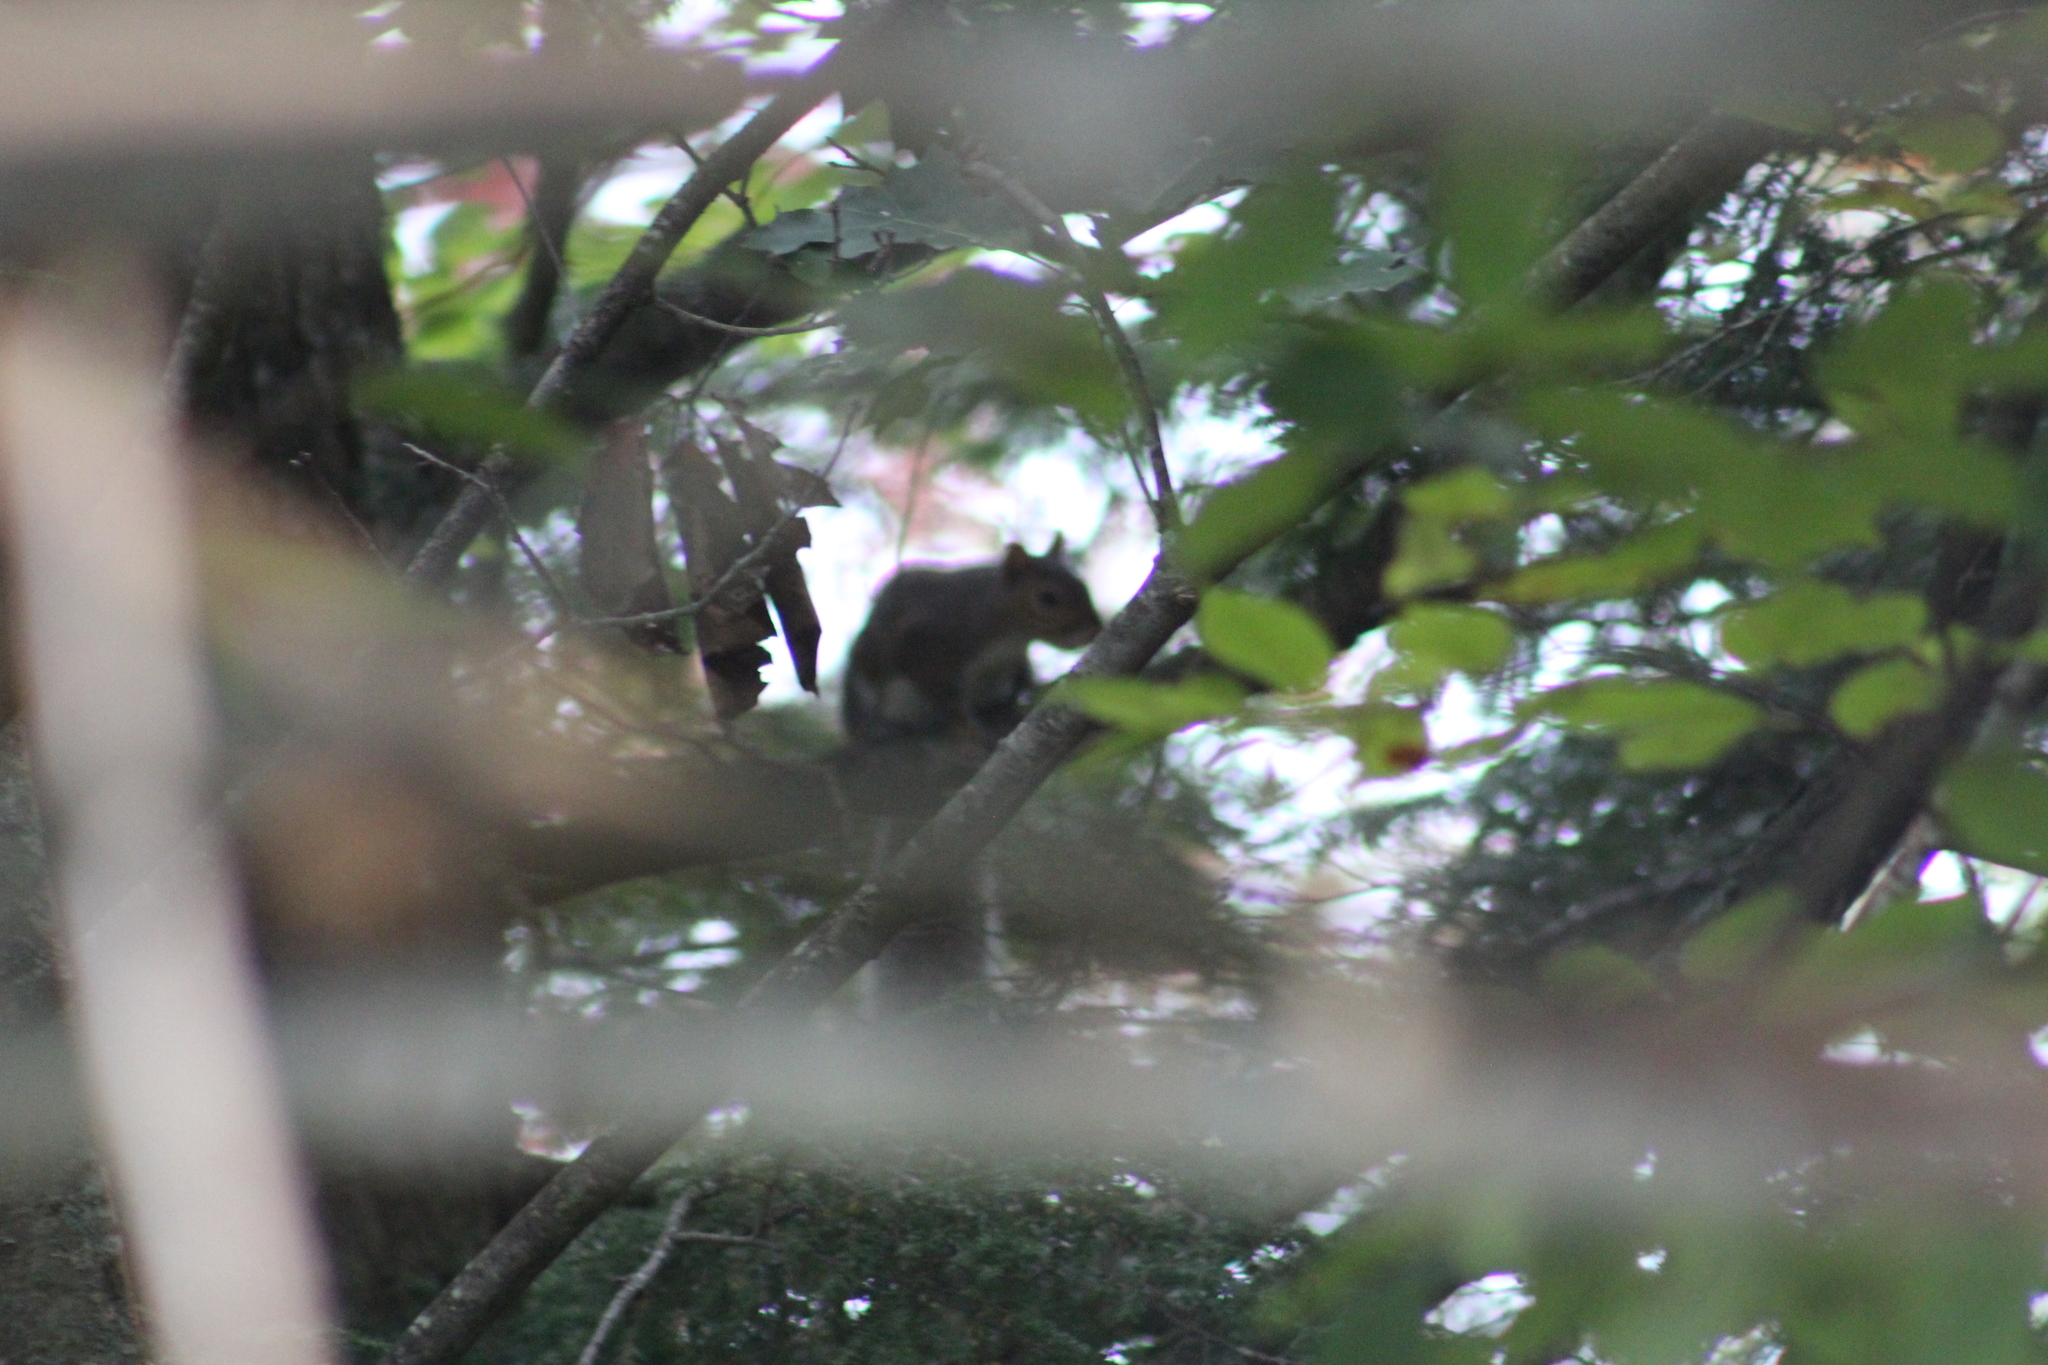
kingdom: Animalia
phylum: Chordata
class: Mammalia
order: Rodentia
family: Sciuridae
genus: Sciurus
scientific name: Sciurus carolinensis
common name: Eastern gray squirrel
